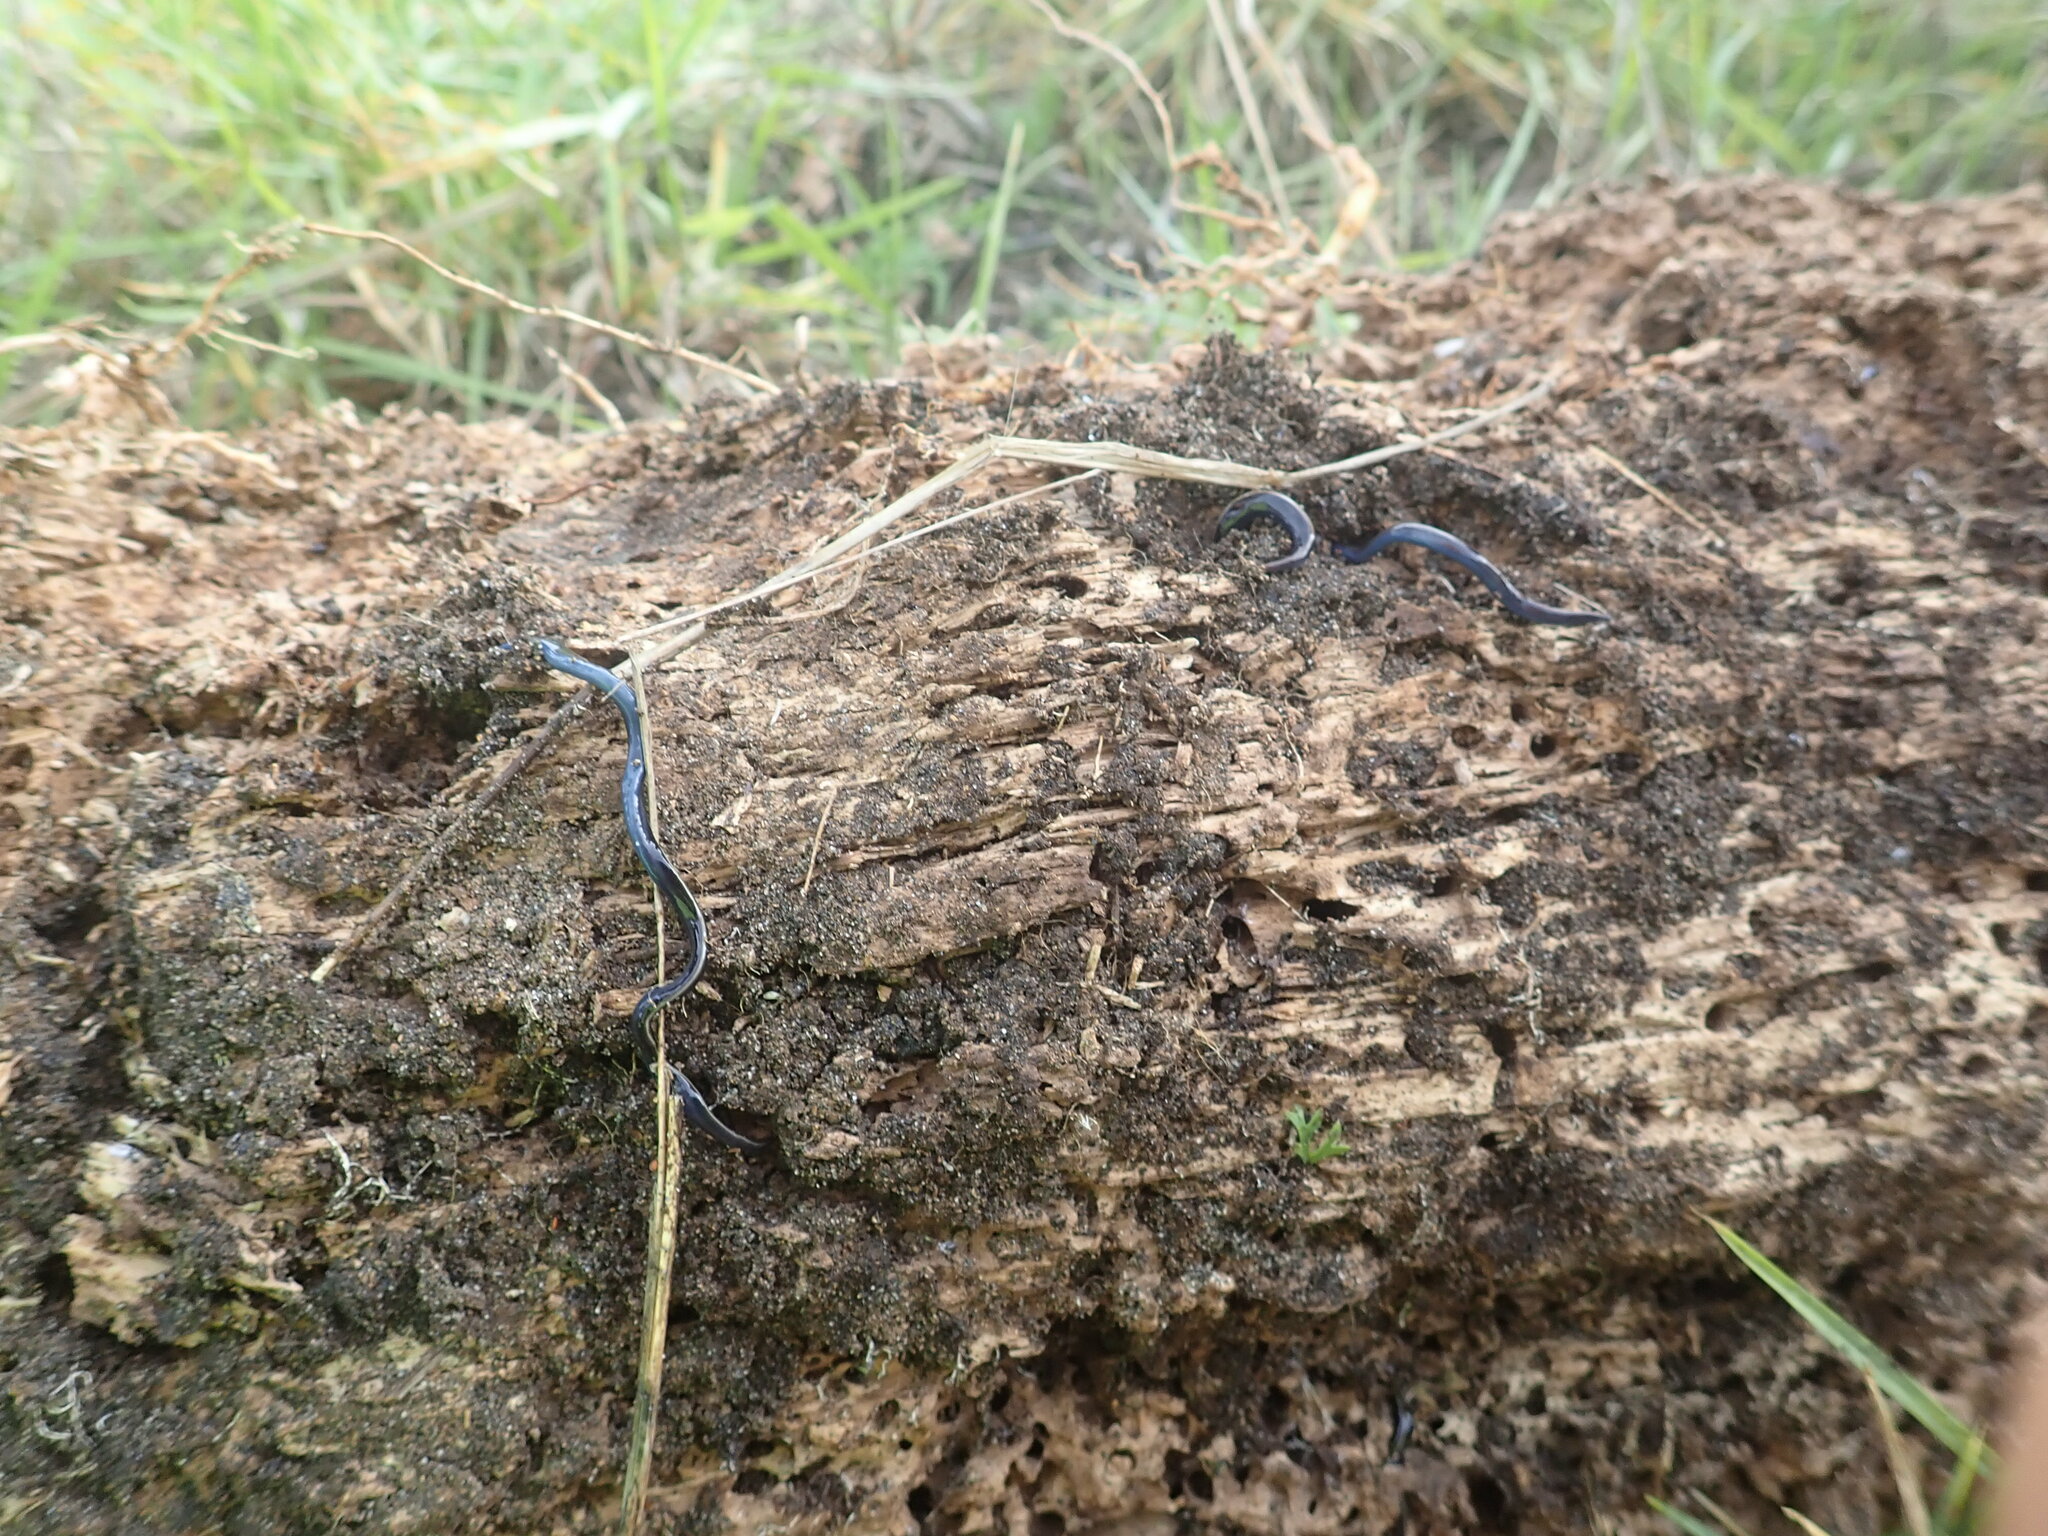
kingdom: Animalia
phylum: Platyhelminthes
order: Tricladida
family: Geoplanidae
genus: Caenoplana
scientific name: Caenoplana coerulea
